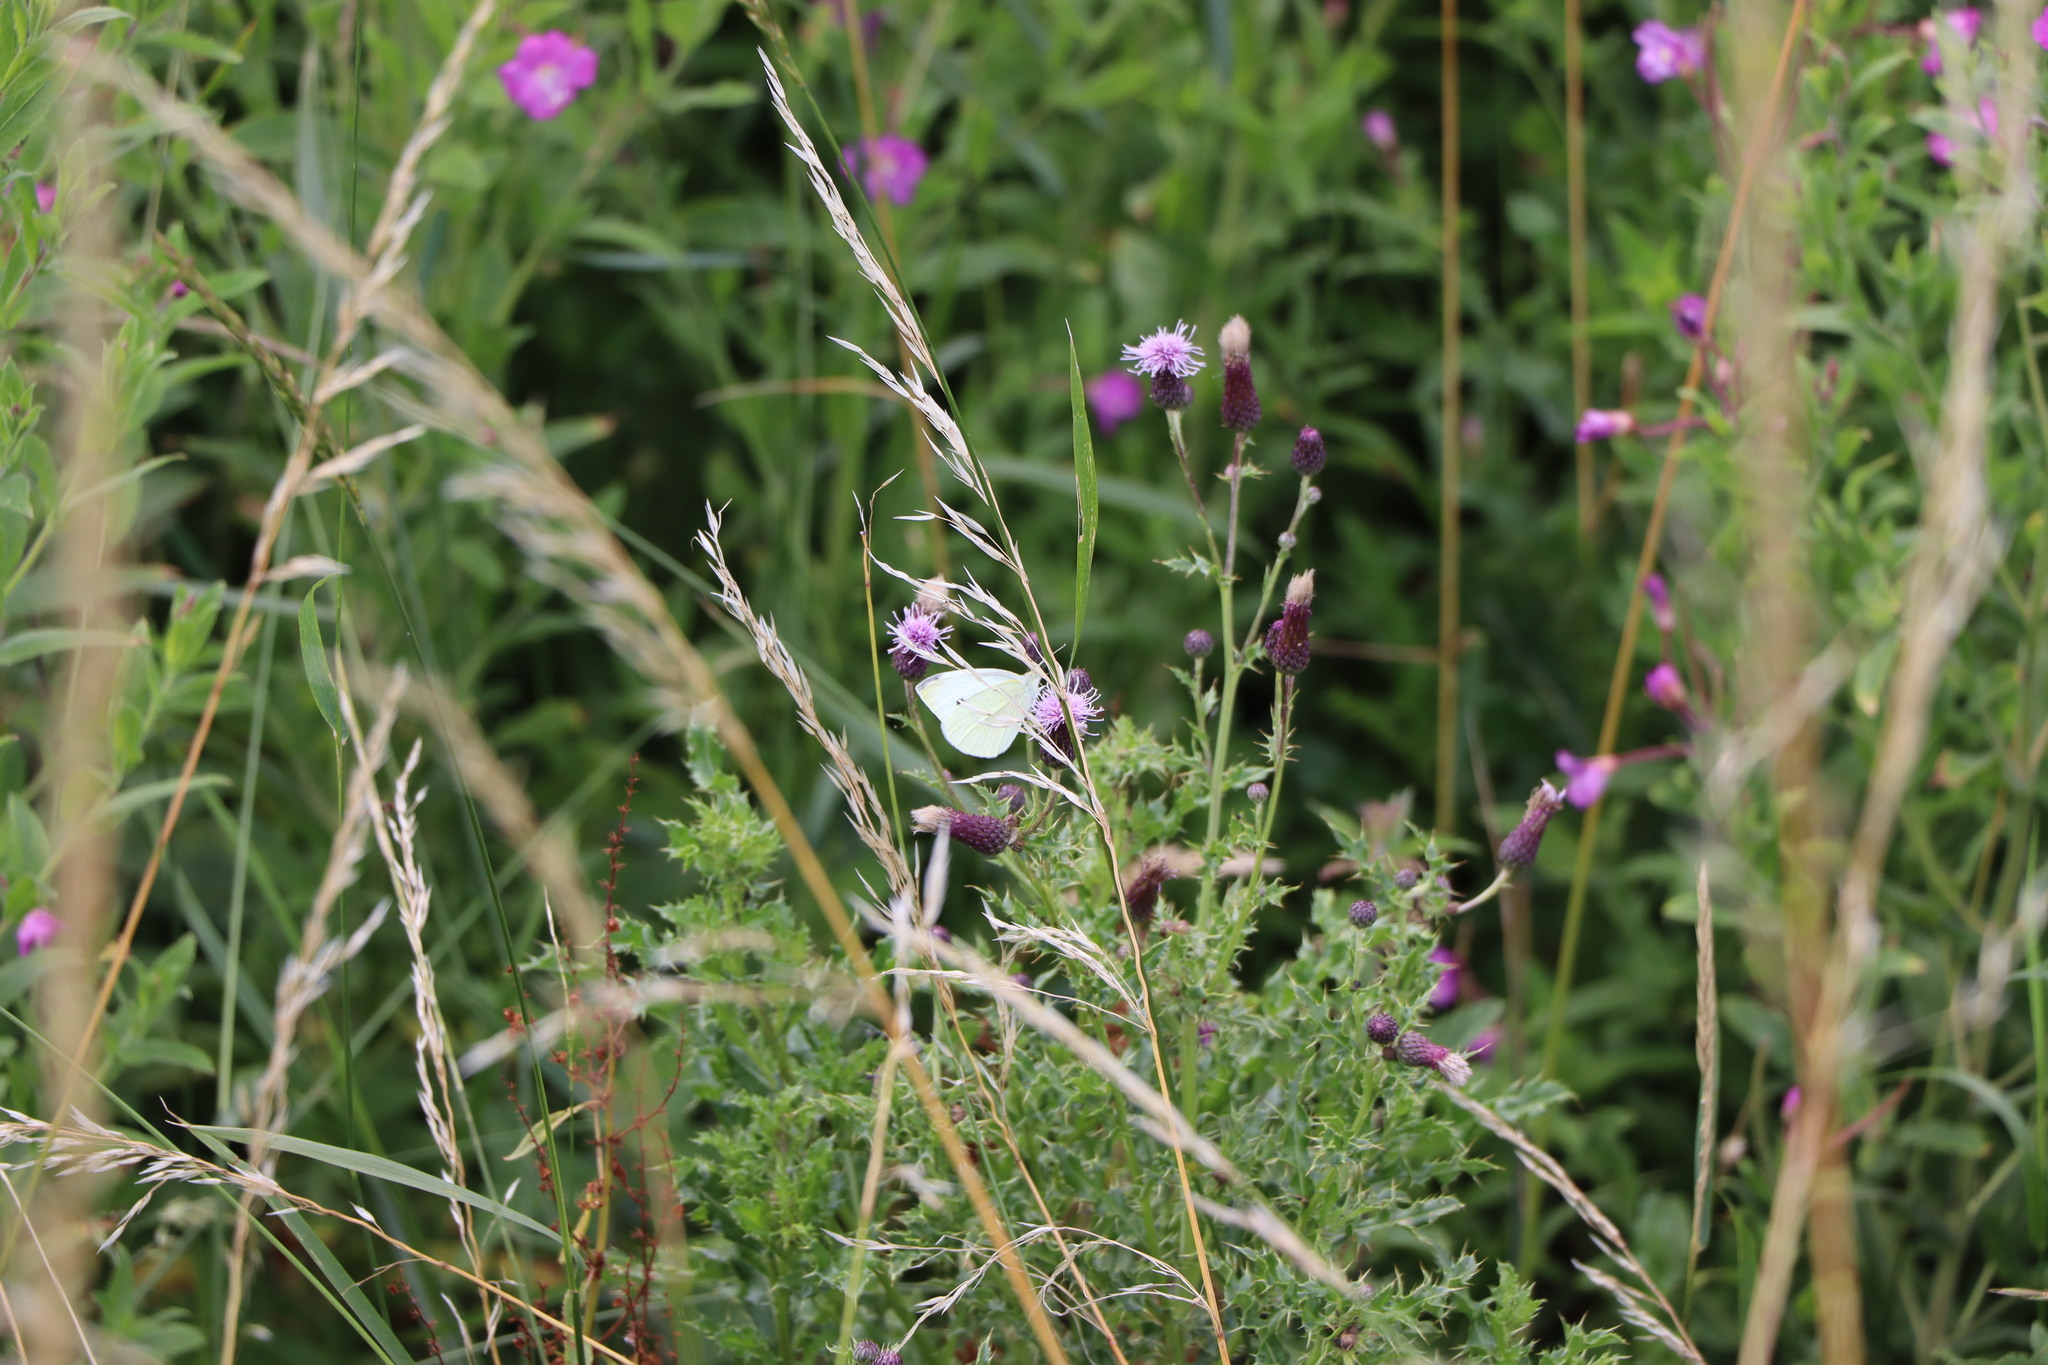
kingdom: Animalia
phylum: Arthropoda
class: Insecta
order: Lepidoptera
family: Pieridae
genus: Pieris
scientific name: Pieris rapae
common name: Small white
